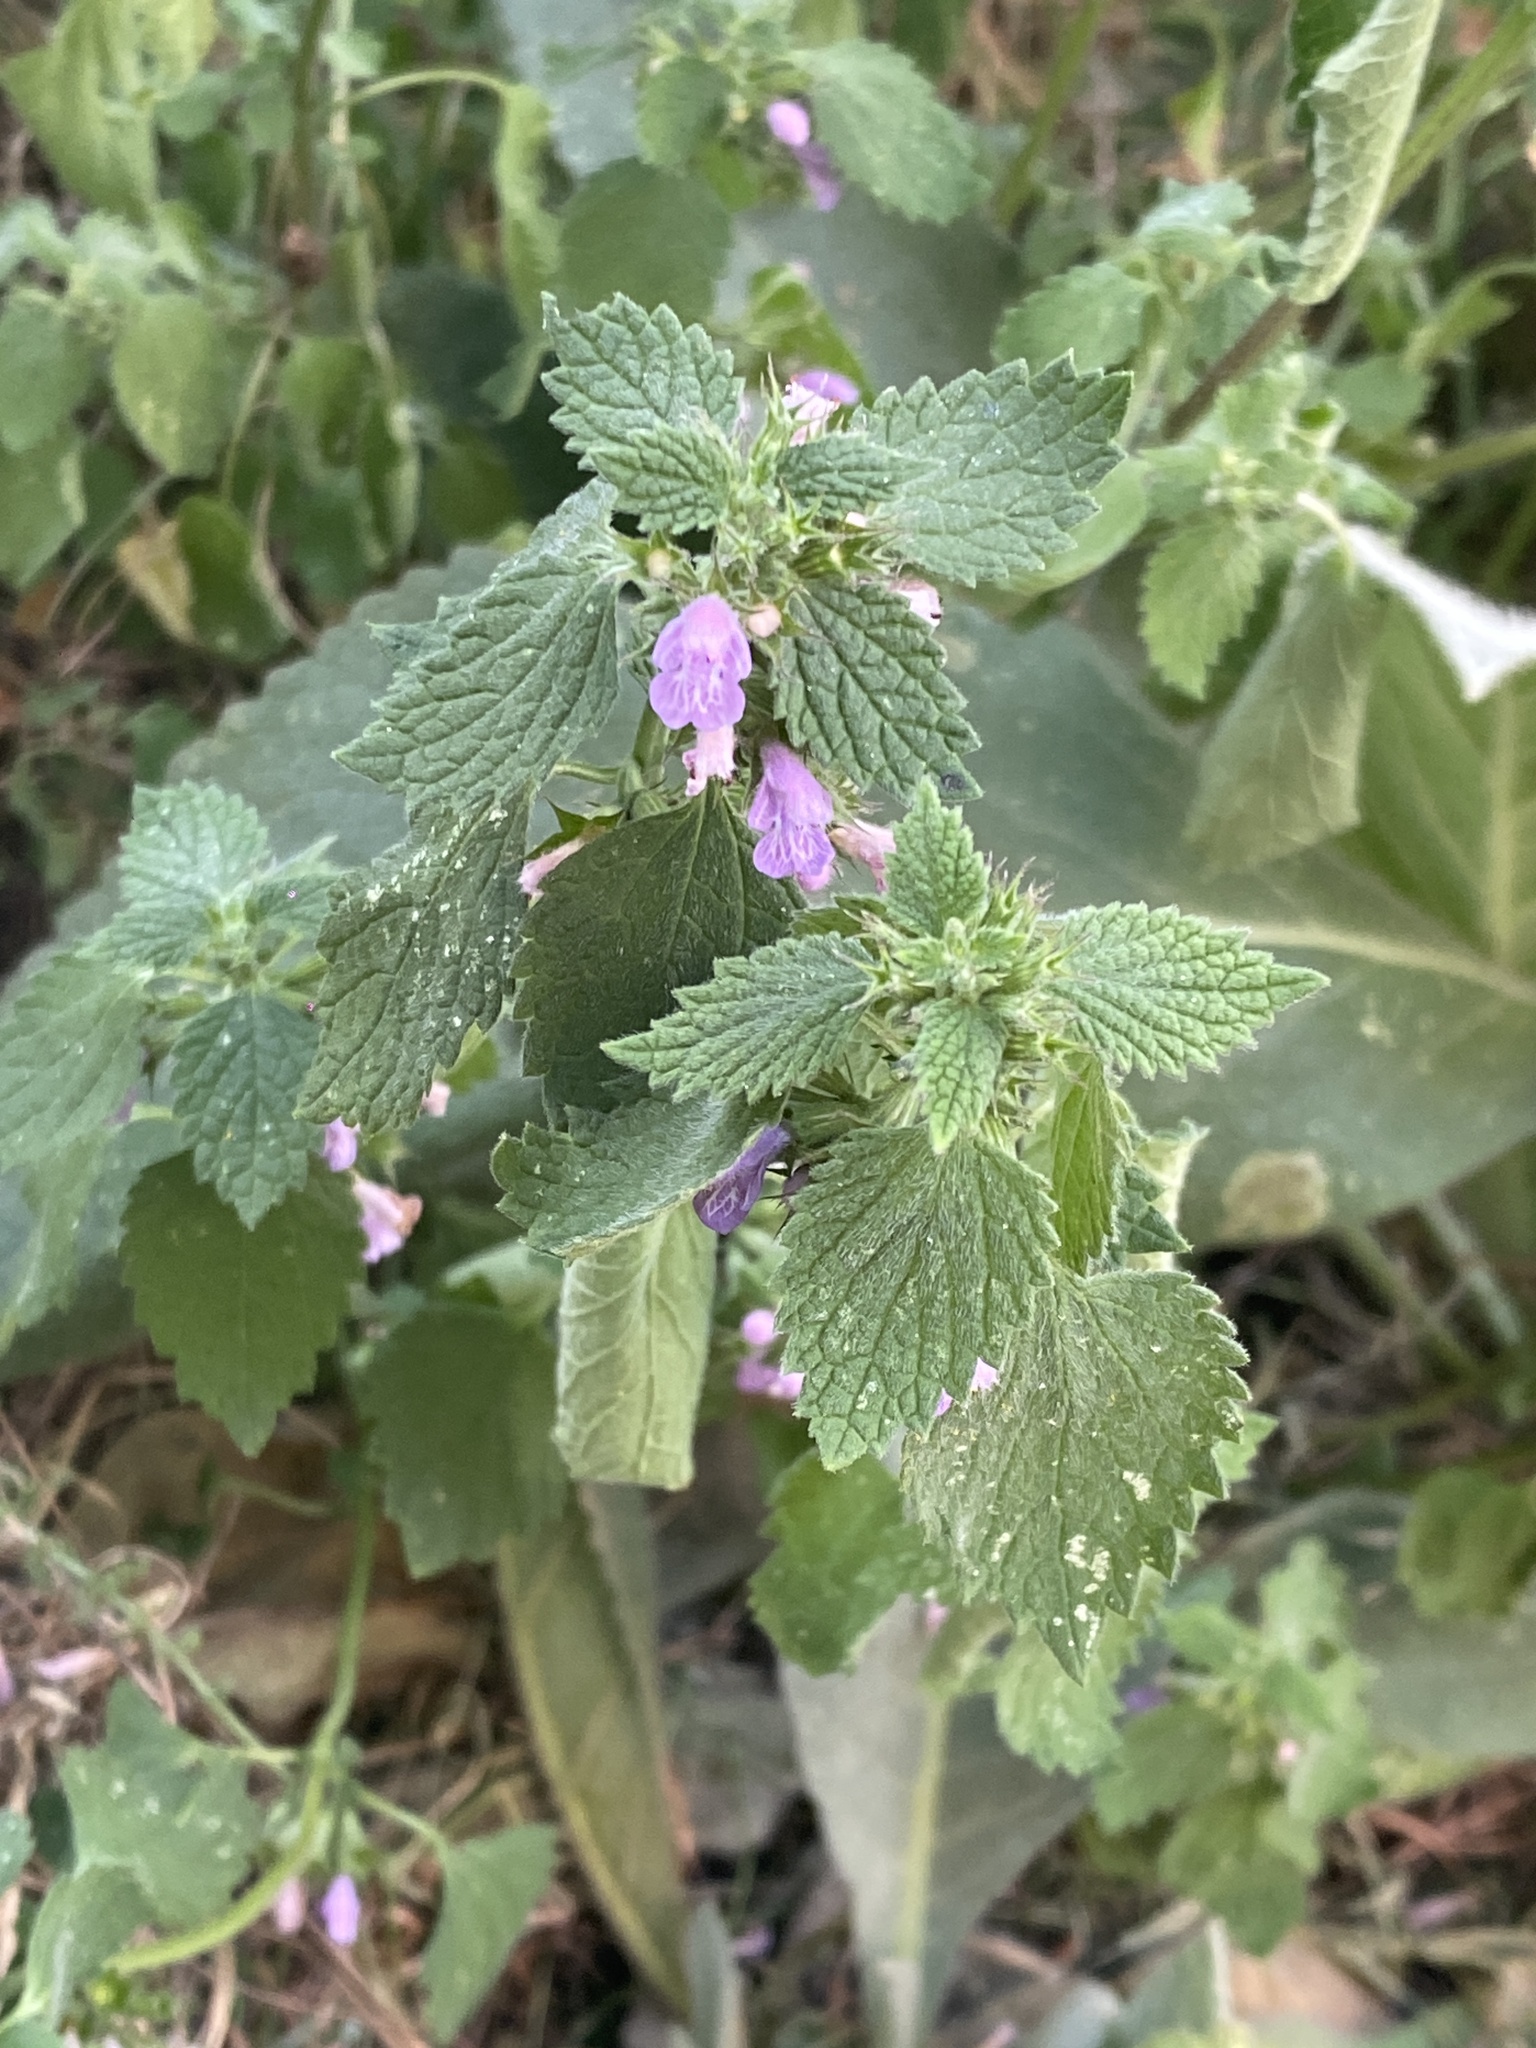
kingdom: Plantae
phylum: Tracheophyta
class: Magnoliopsida
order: Lamiales
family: Lamiaceae
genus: Ballota
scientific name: Ballota nigra
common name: Black horehound
